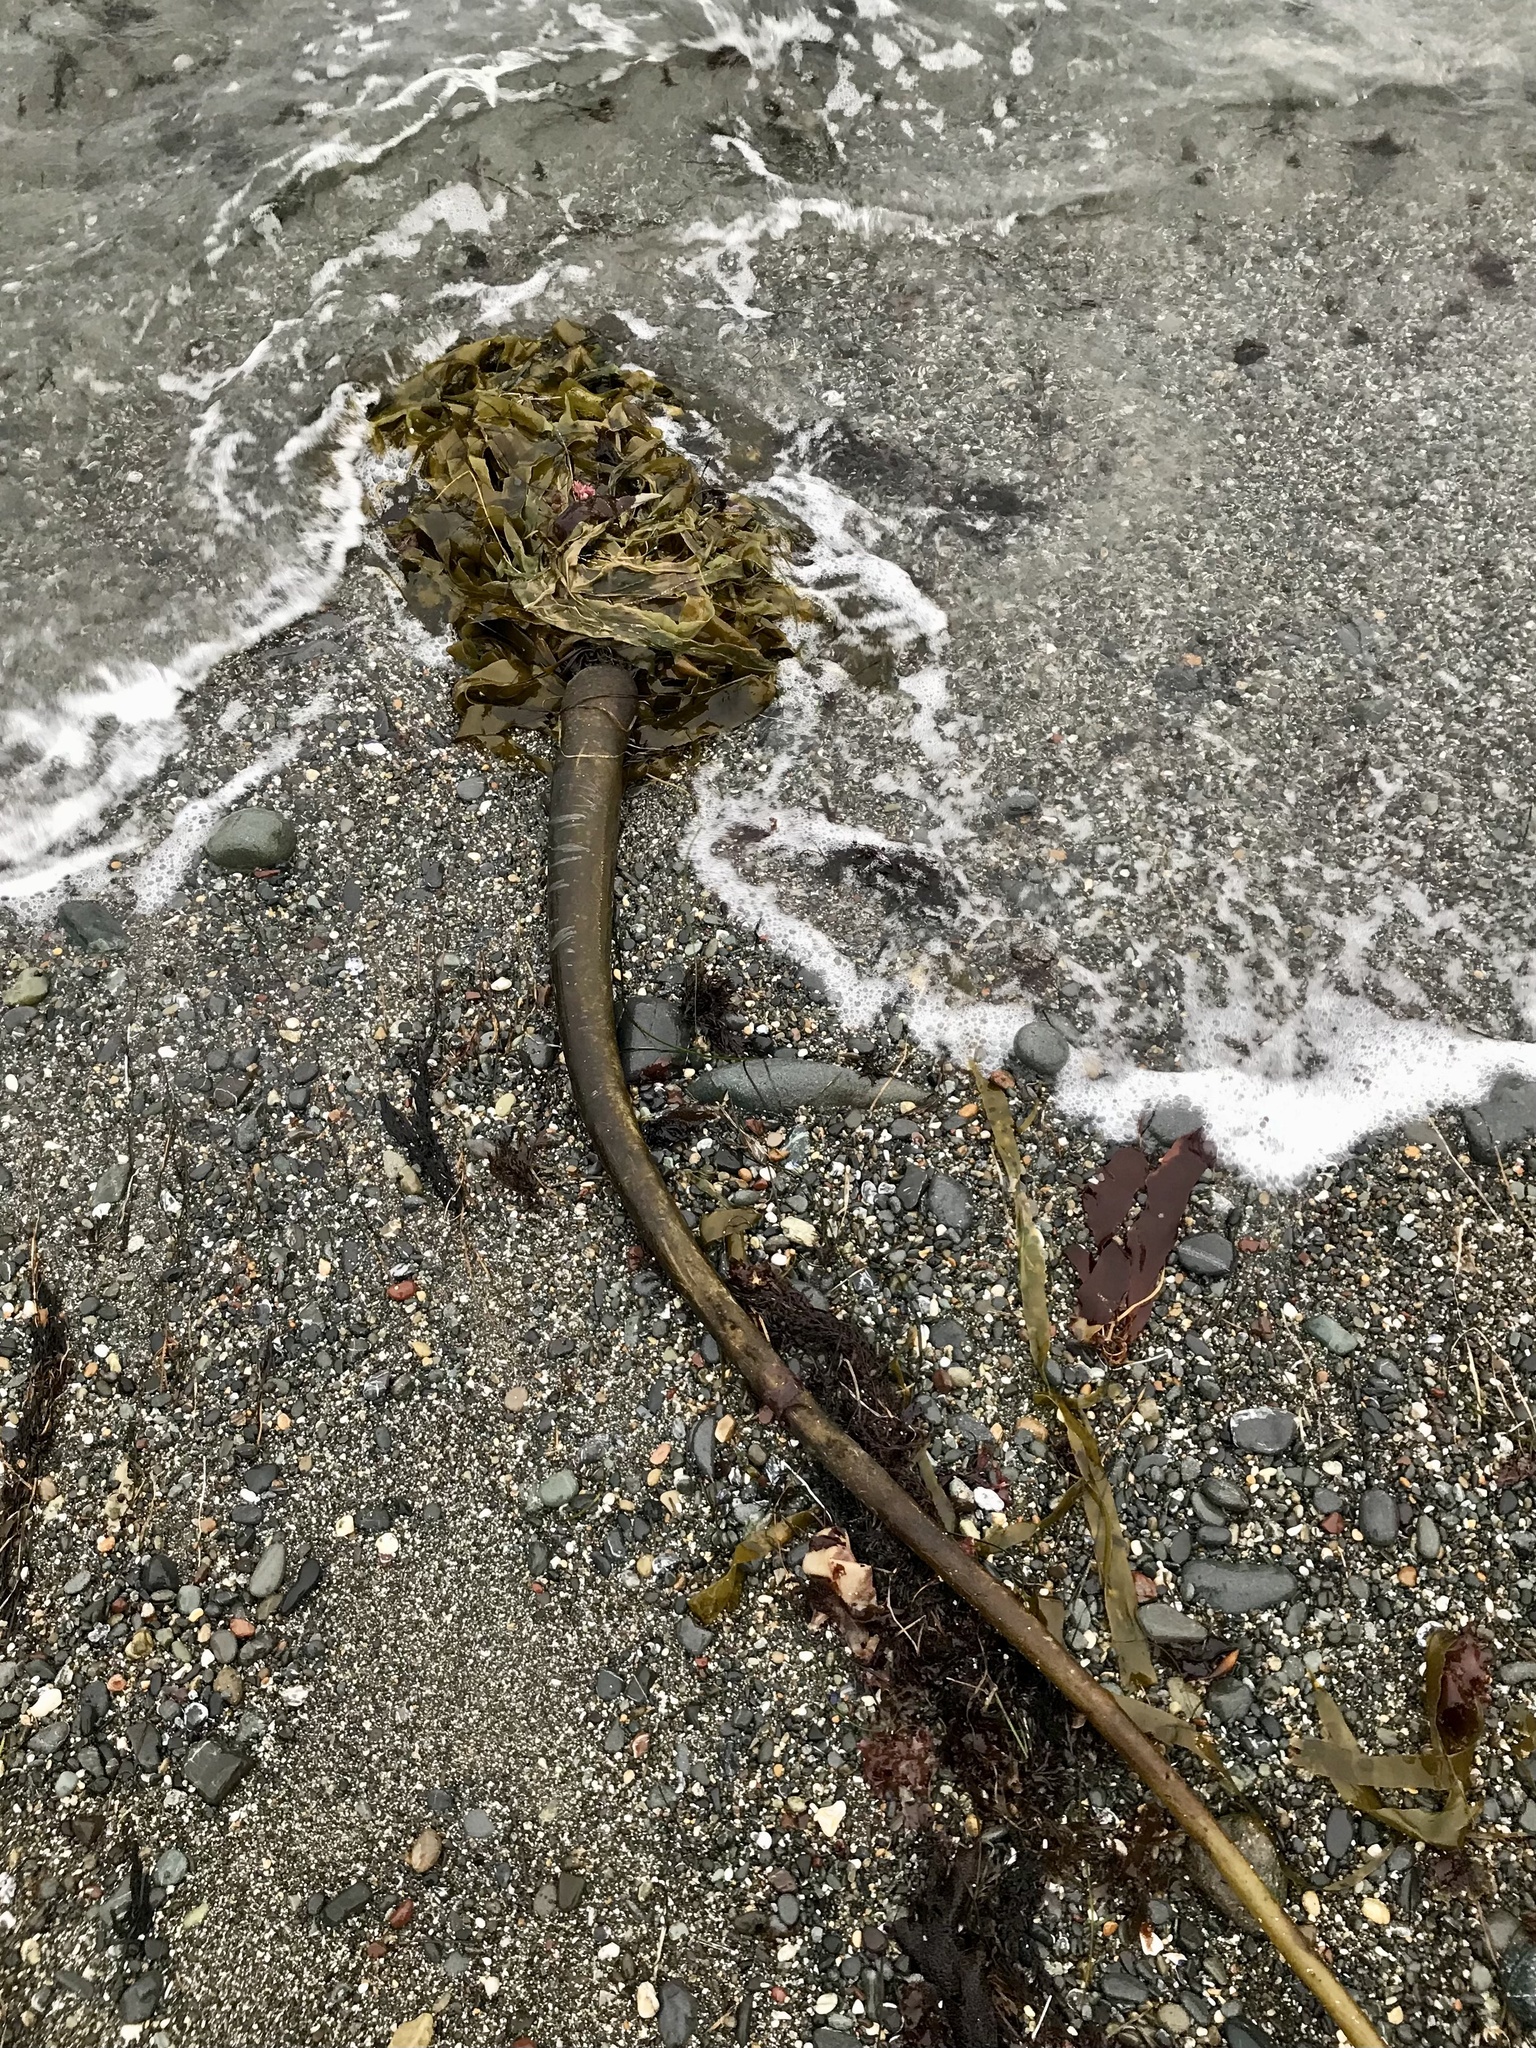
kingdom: Chromista
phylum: Ochrophyta
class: Phaeophyceae
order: Laminariales
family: Laminariaceae
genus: Nereocystis
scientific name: Nereocystis luetkeana
